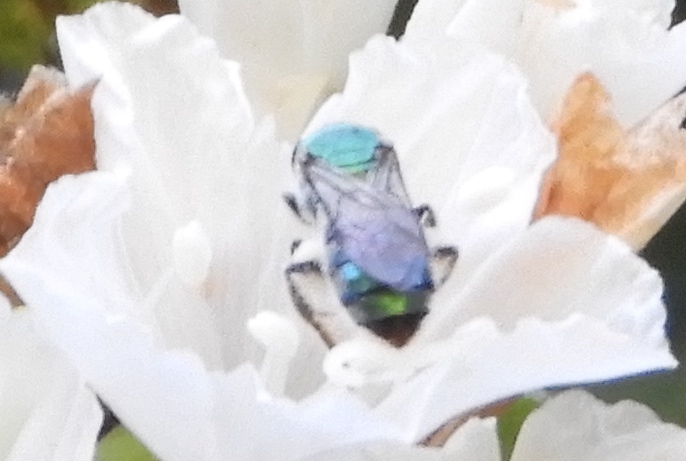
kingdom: Animalia
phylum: Arthropoda
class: Insecta
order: Hymenoptera
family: Halictidae
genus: Augochlora
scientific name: Augochlora
